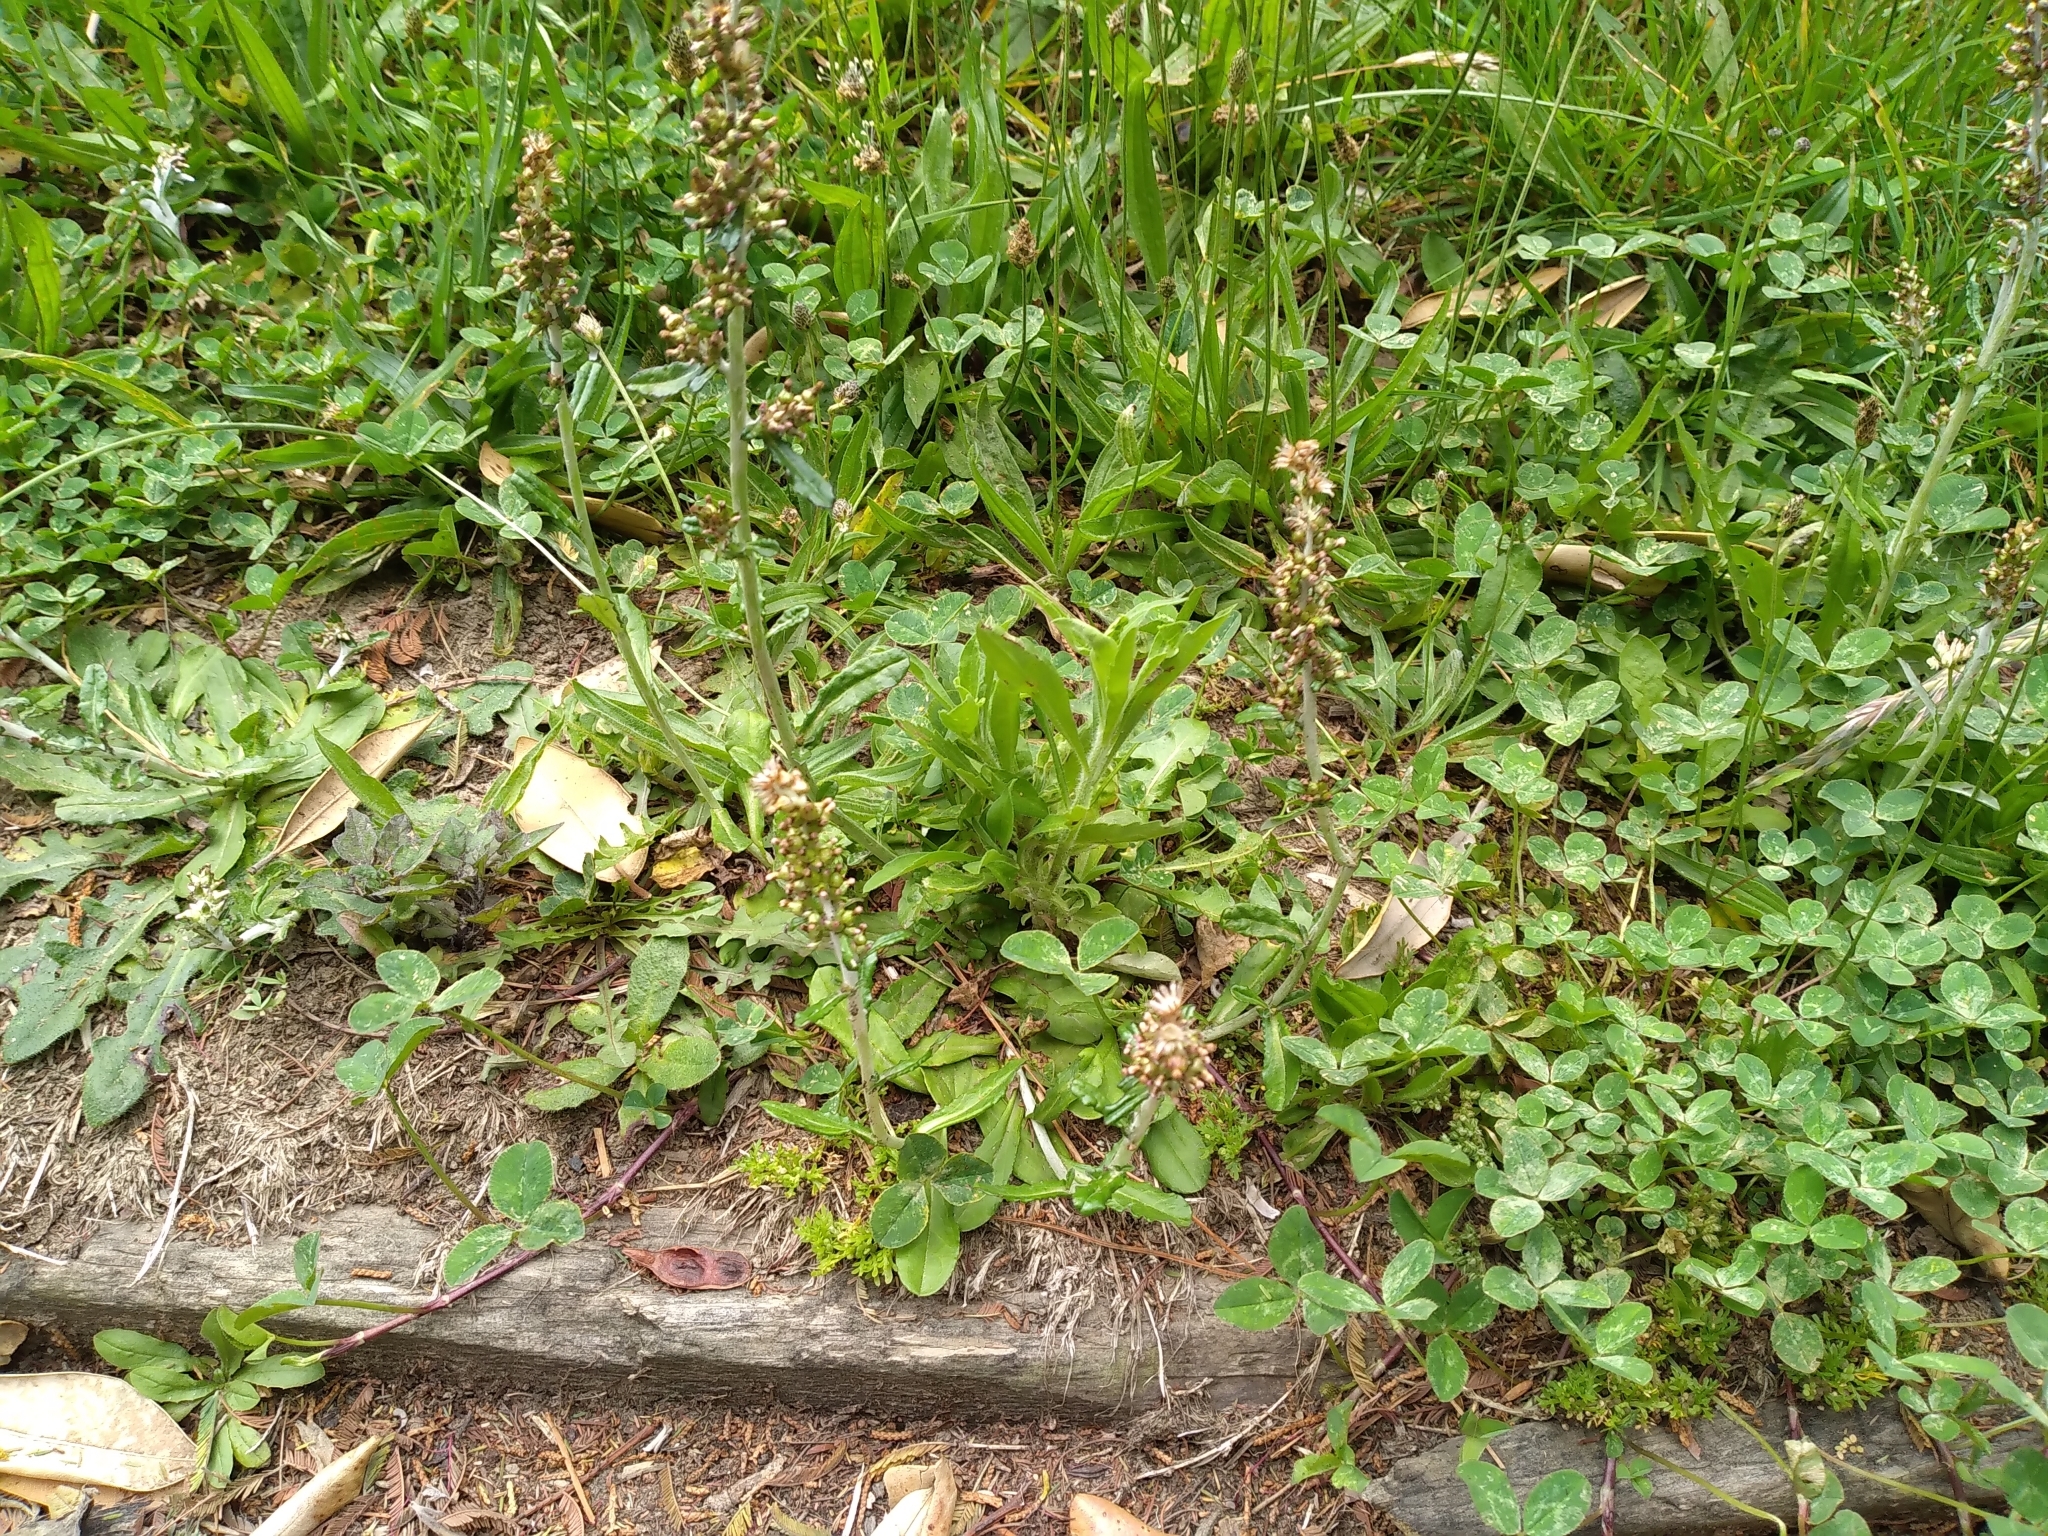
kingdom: Plantae
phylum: Tracheophyta
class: Magnoliopsida
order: Asterales
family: Asteraceae
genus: Gamochaeta
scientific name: Gamochaeta americana
